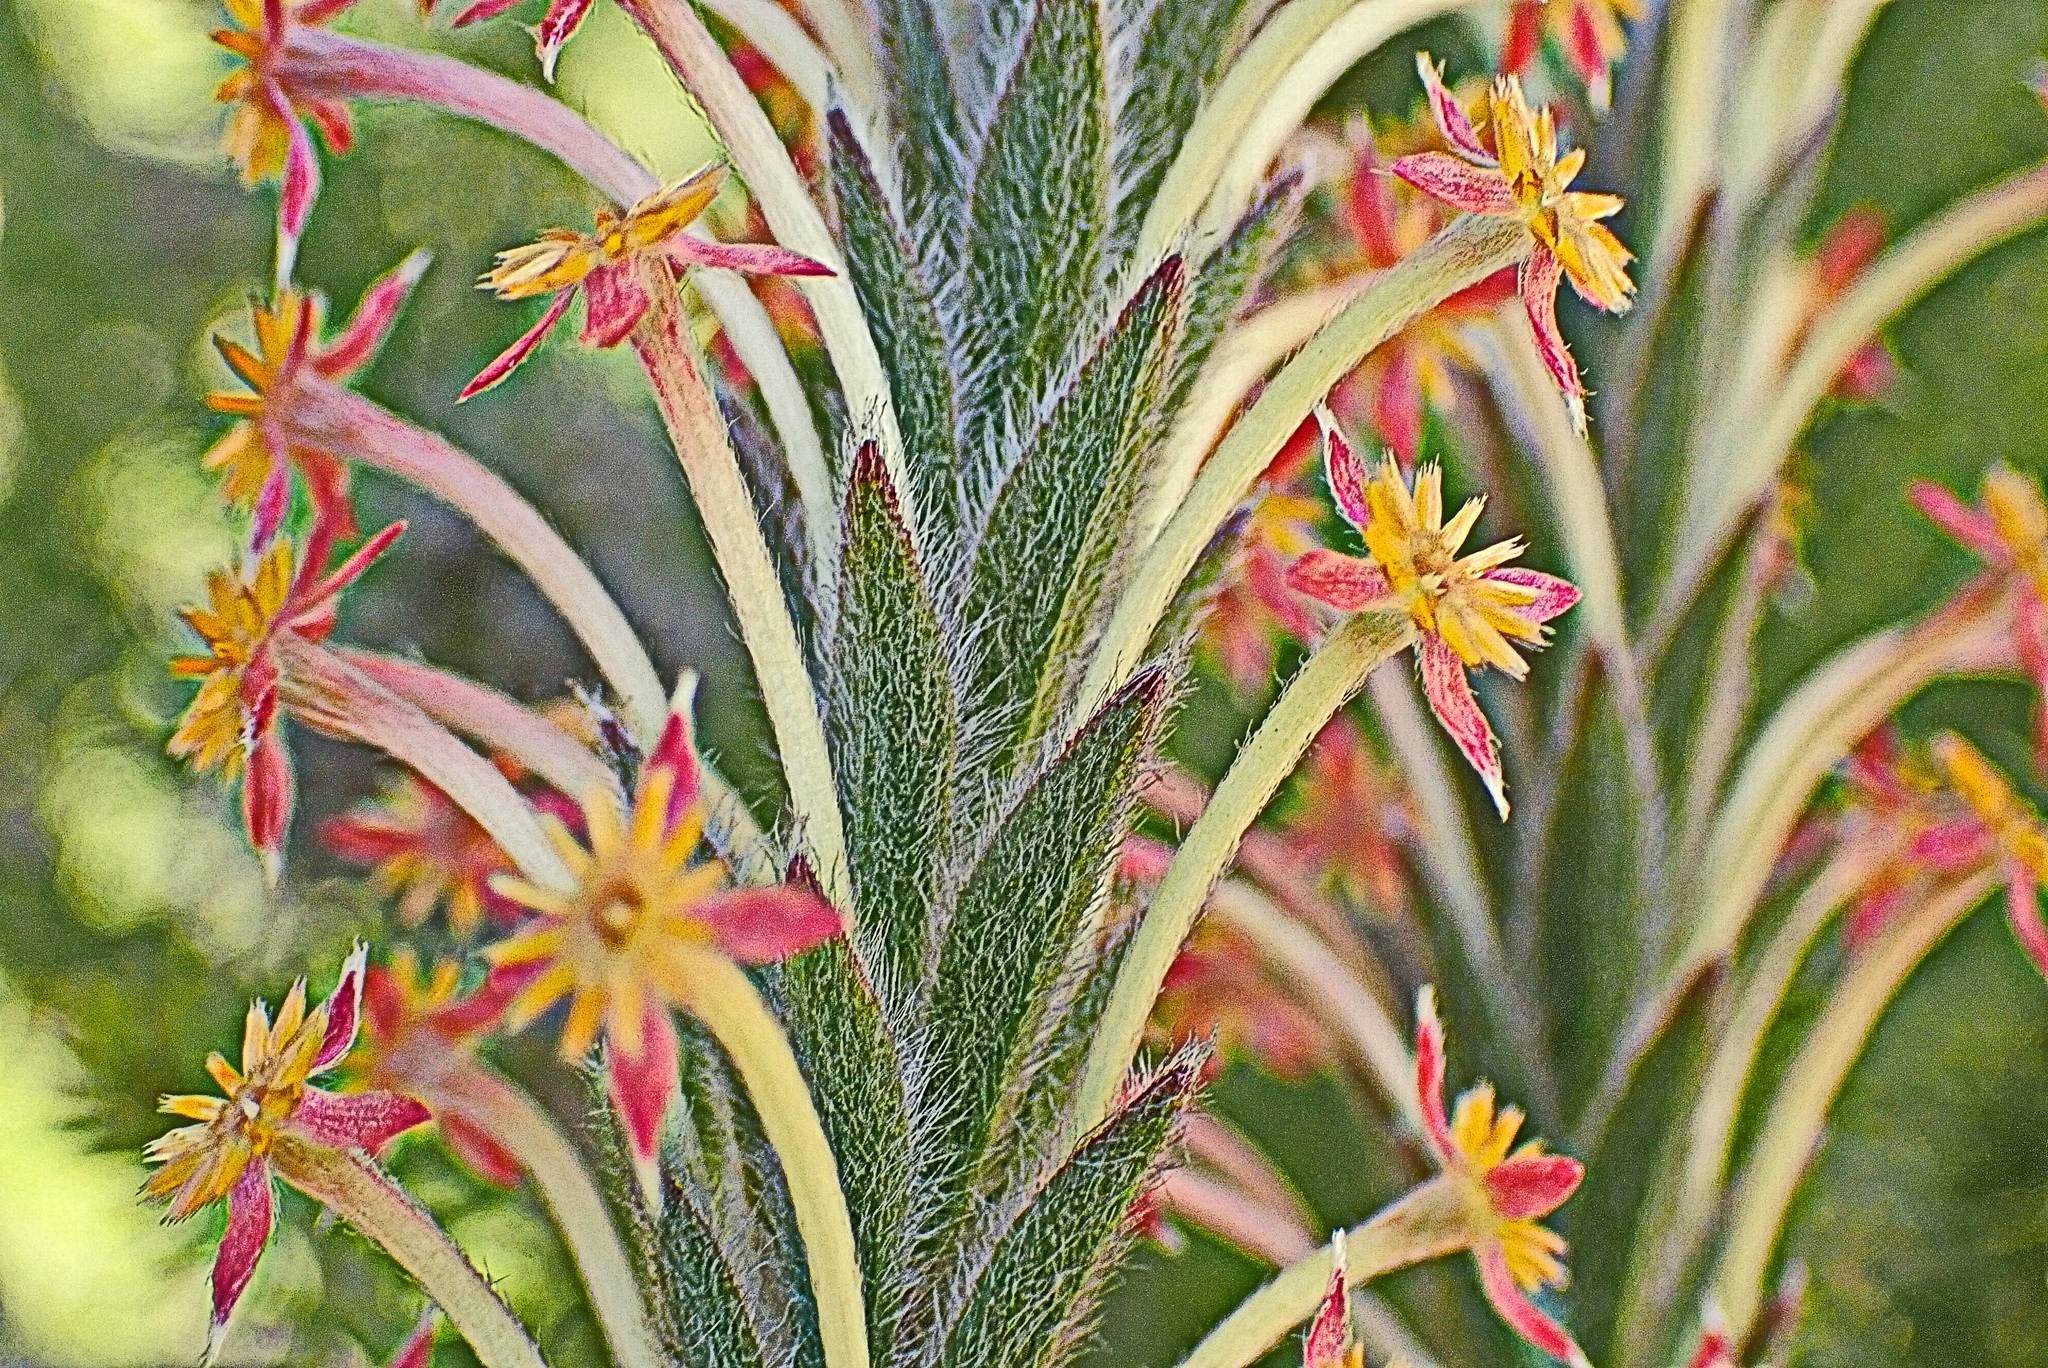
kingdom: Plantae
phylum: Tracheophyta
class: Magnoliopsida
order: Malvales
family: Thymelaeaceae
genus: Struthiola
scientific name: Struthiola tomentosa
